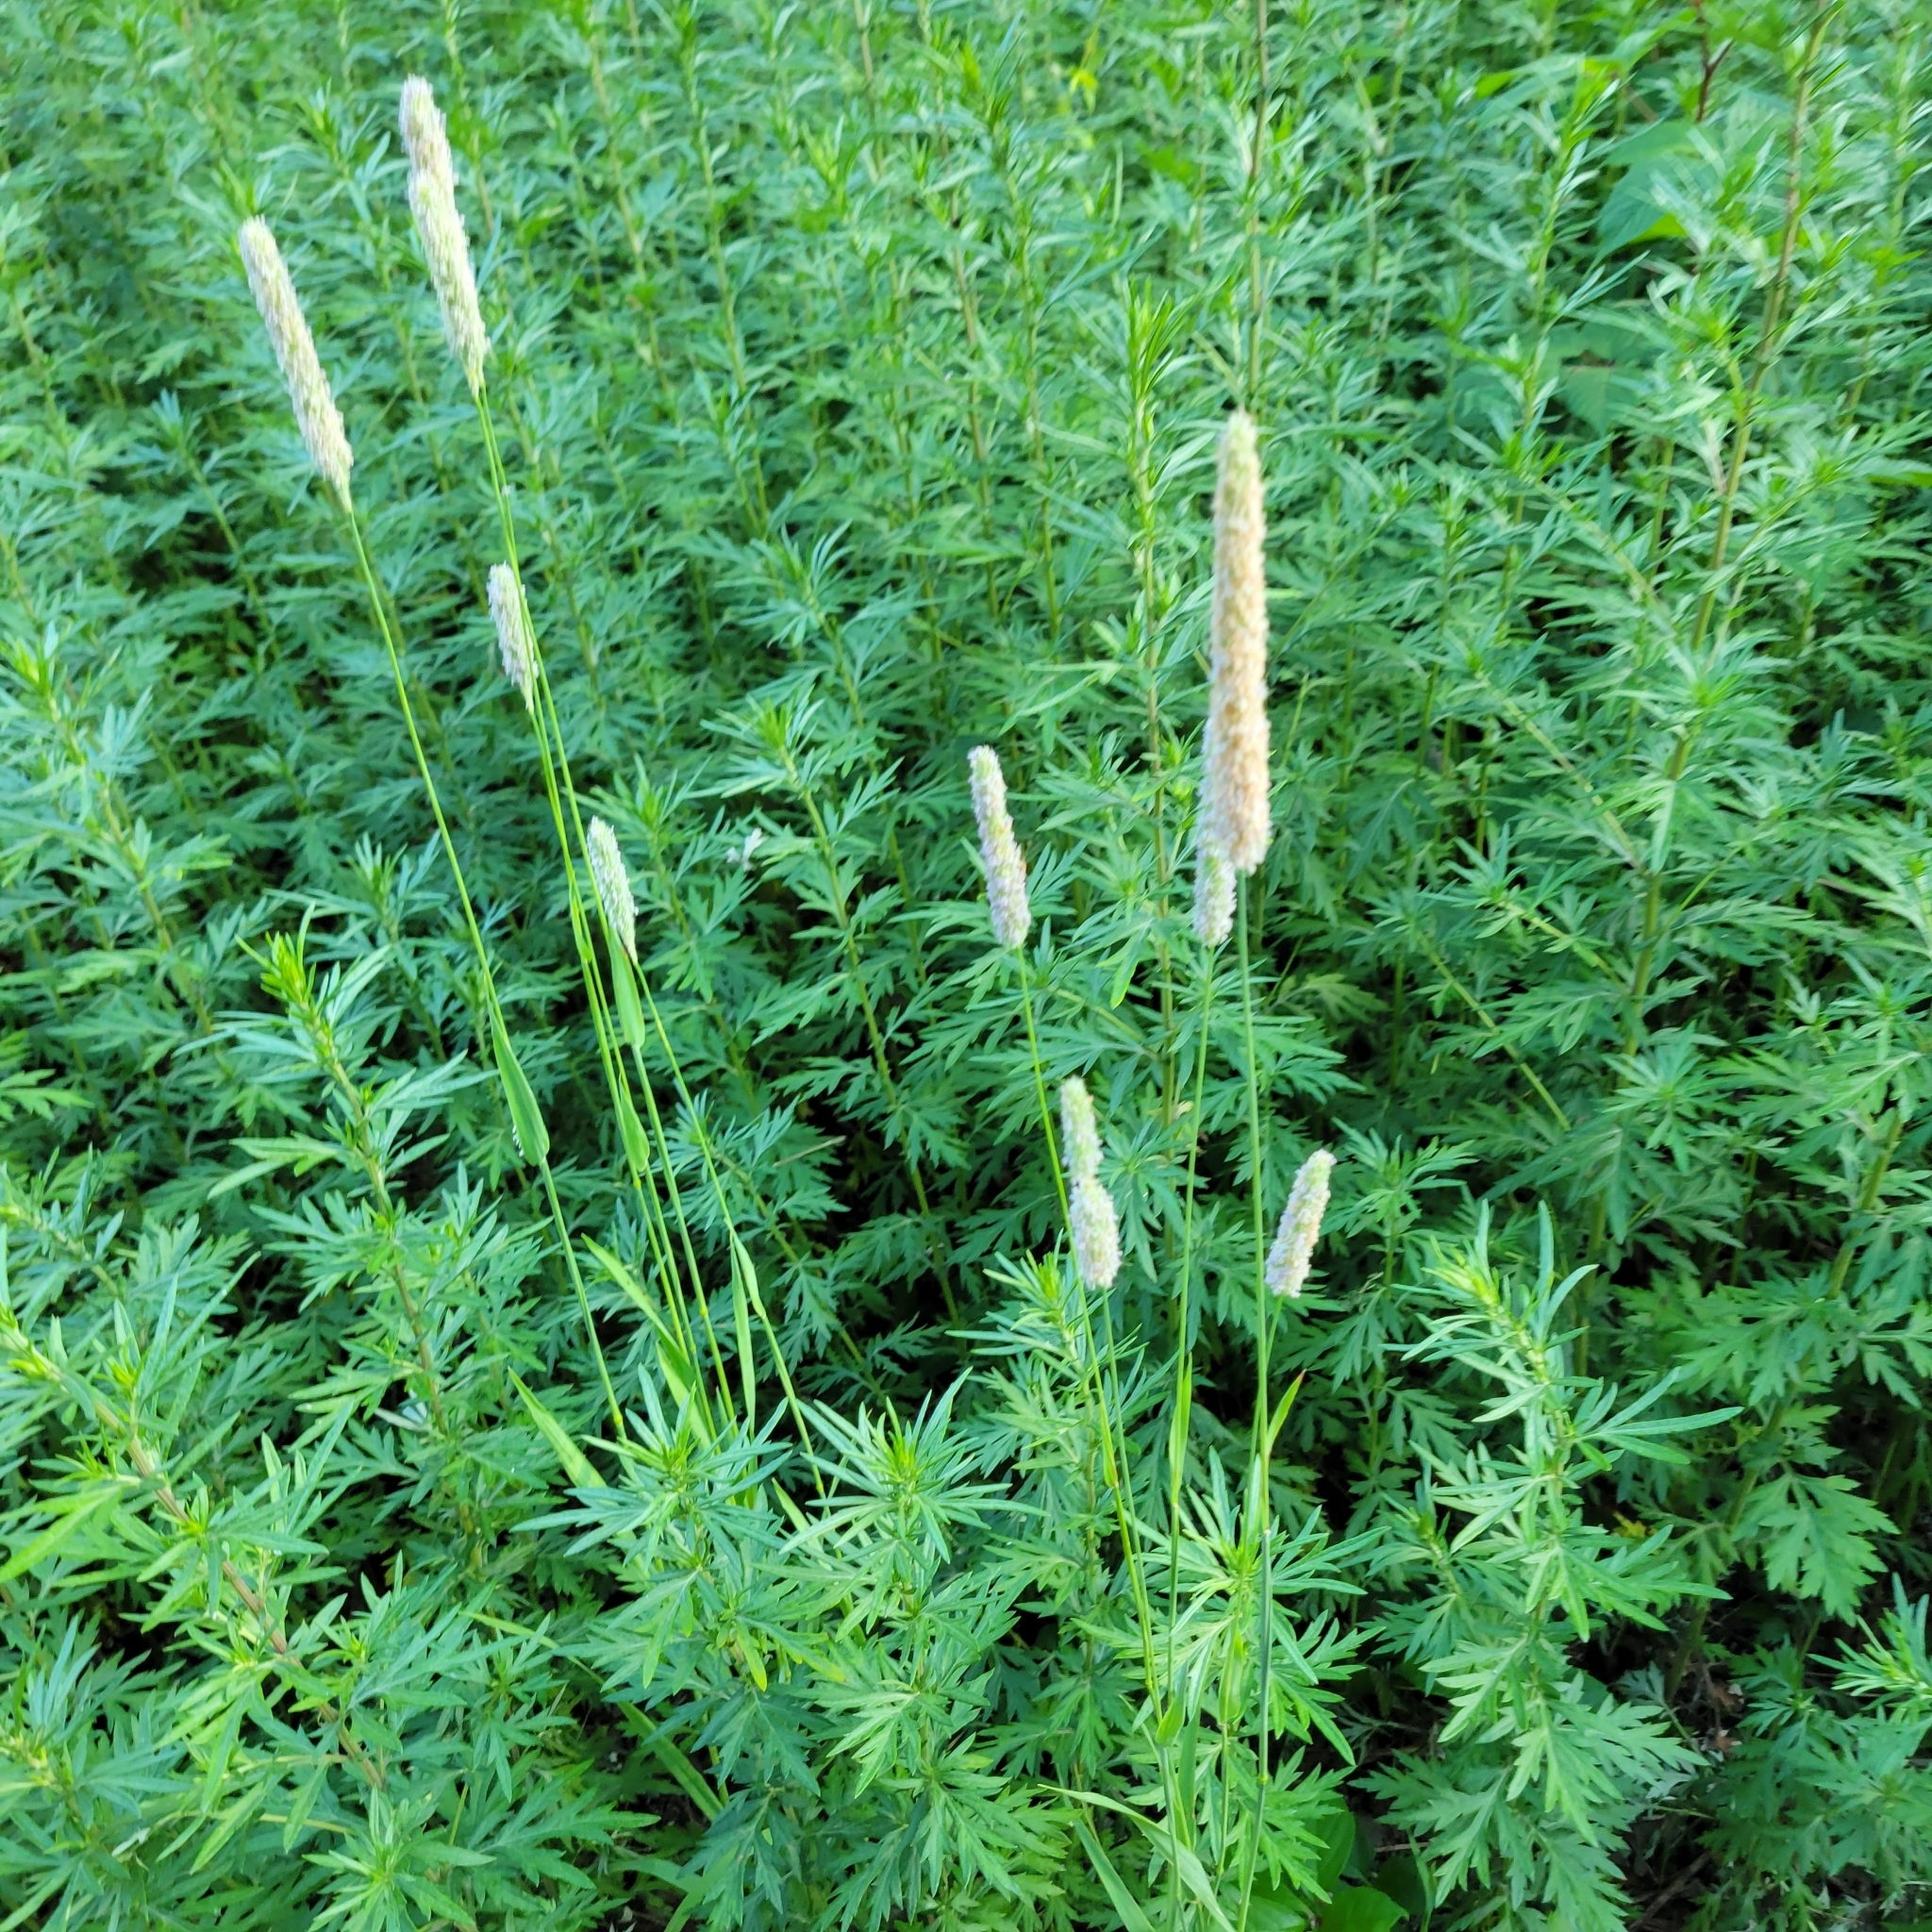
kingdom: Plantae
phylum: Tracheophyta
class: Liliopsida
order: Poales
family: Poaceae
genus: Phleum
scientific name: Phleum pratense
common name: Timothy grass
